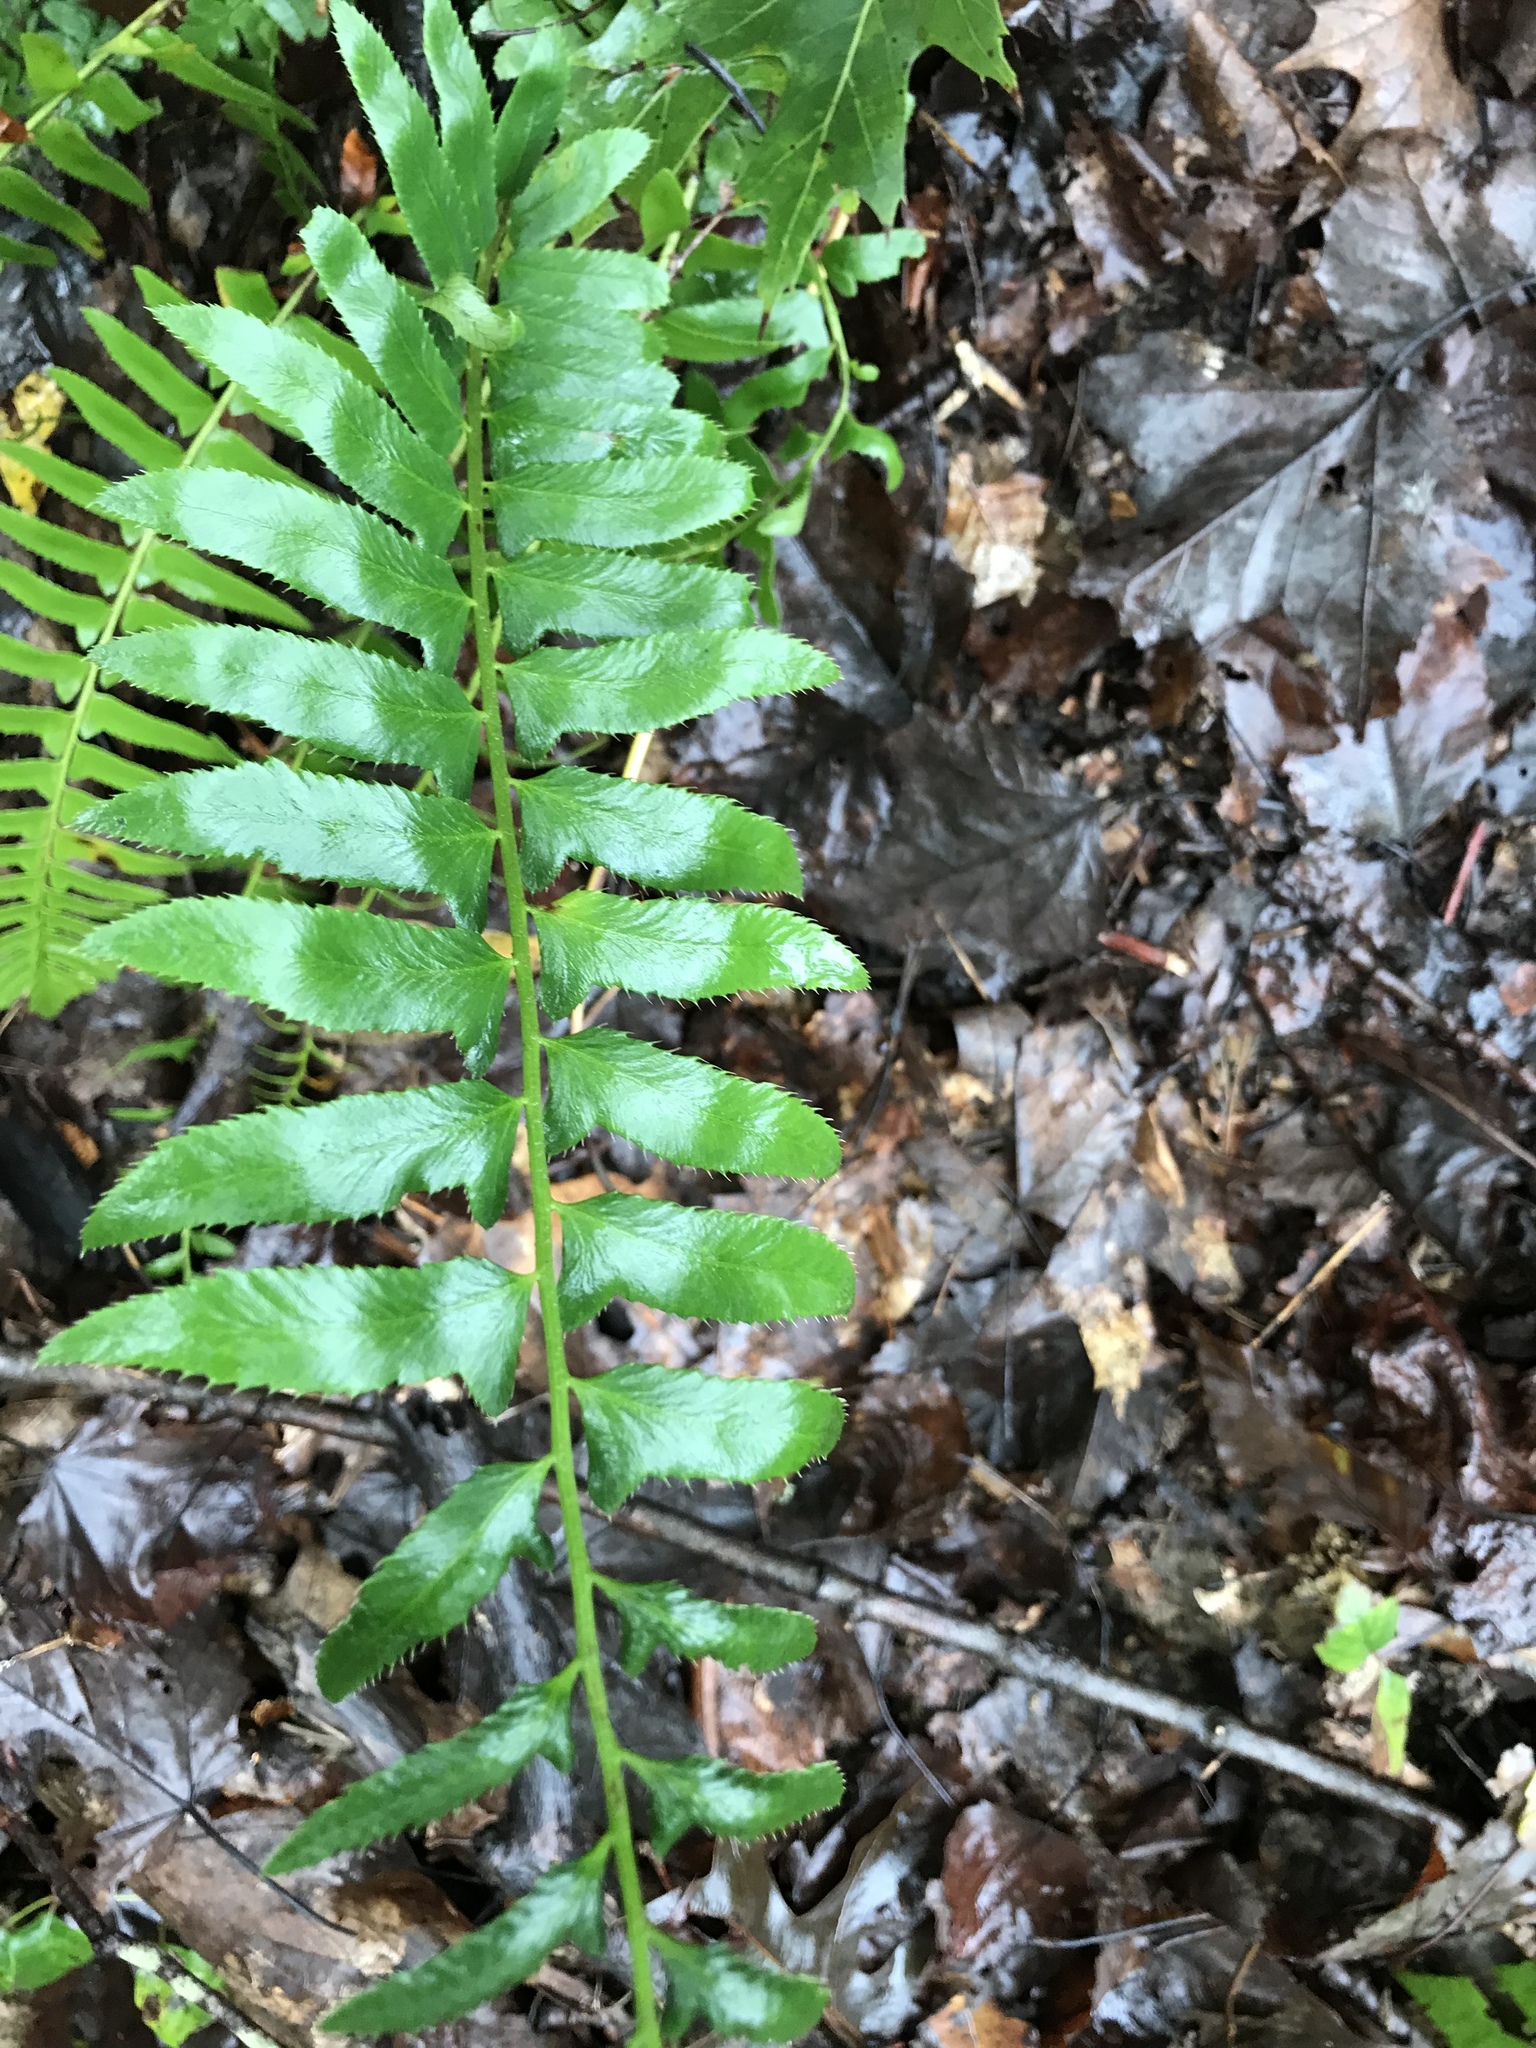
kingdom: Plantae
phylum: Tracheophyta
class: Polypodiopsida
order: Polypodiales
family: Dryopteridaceae
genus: Polystichum
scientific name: Polystichum acrostichoides
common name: Christmas fern
